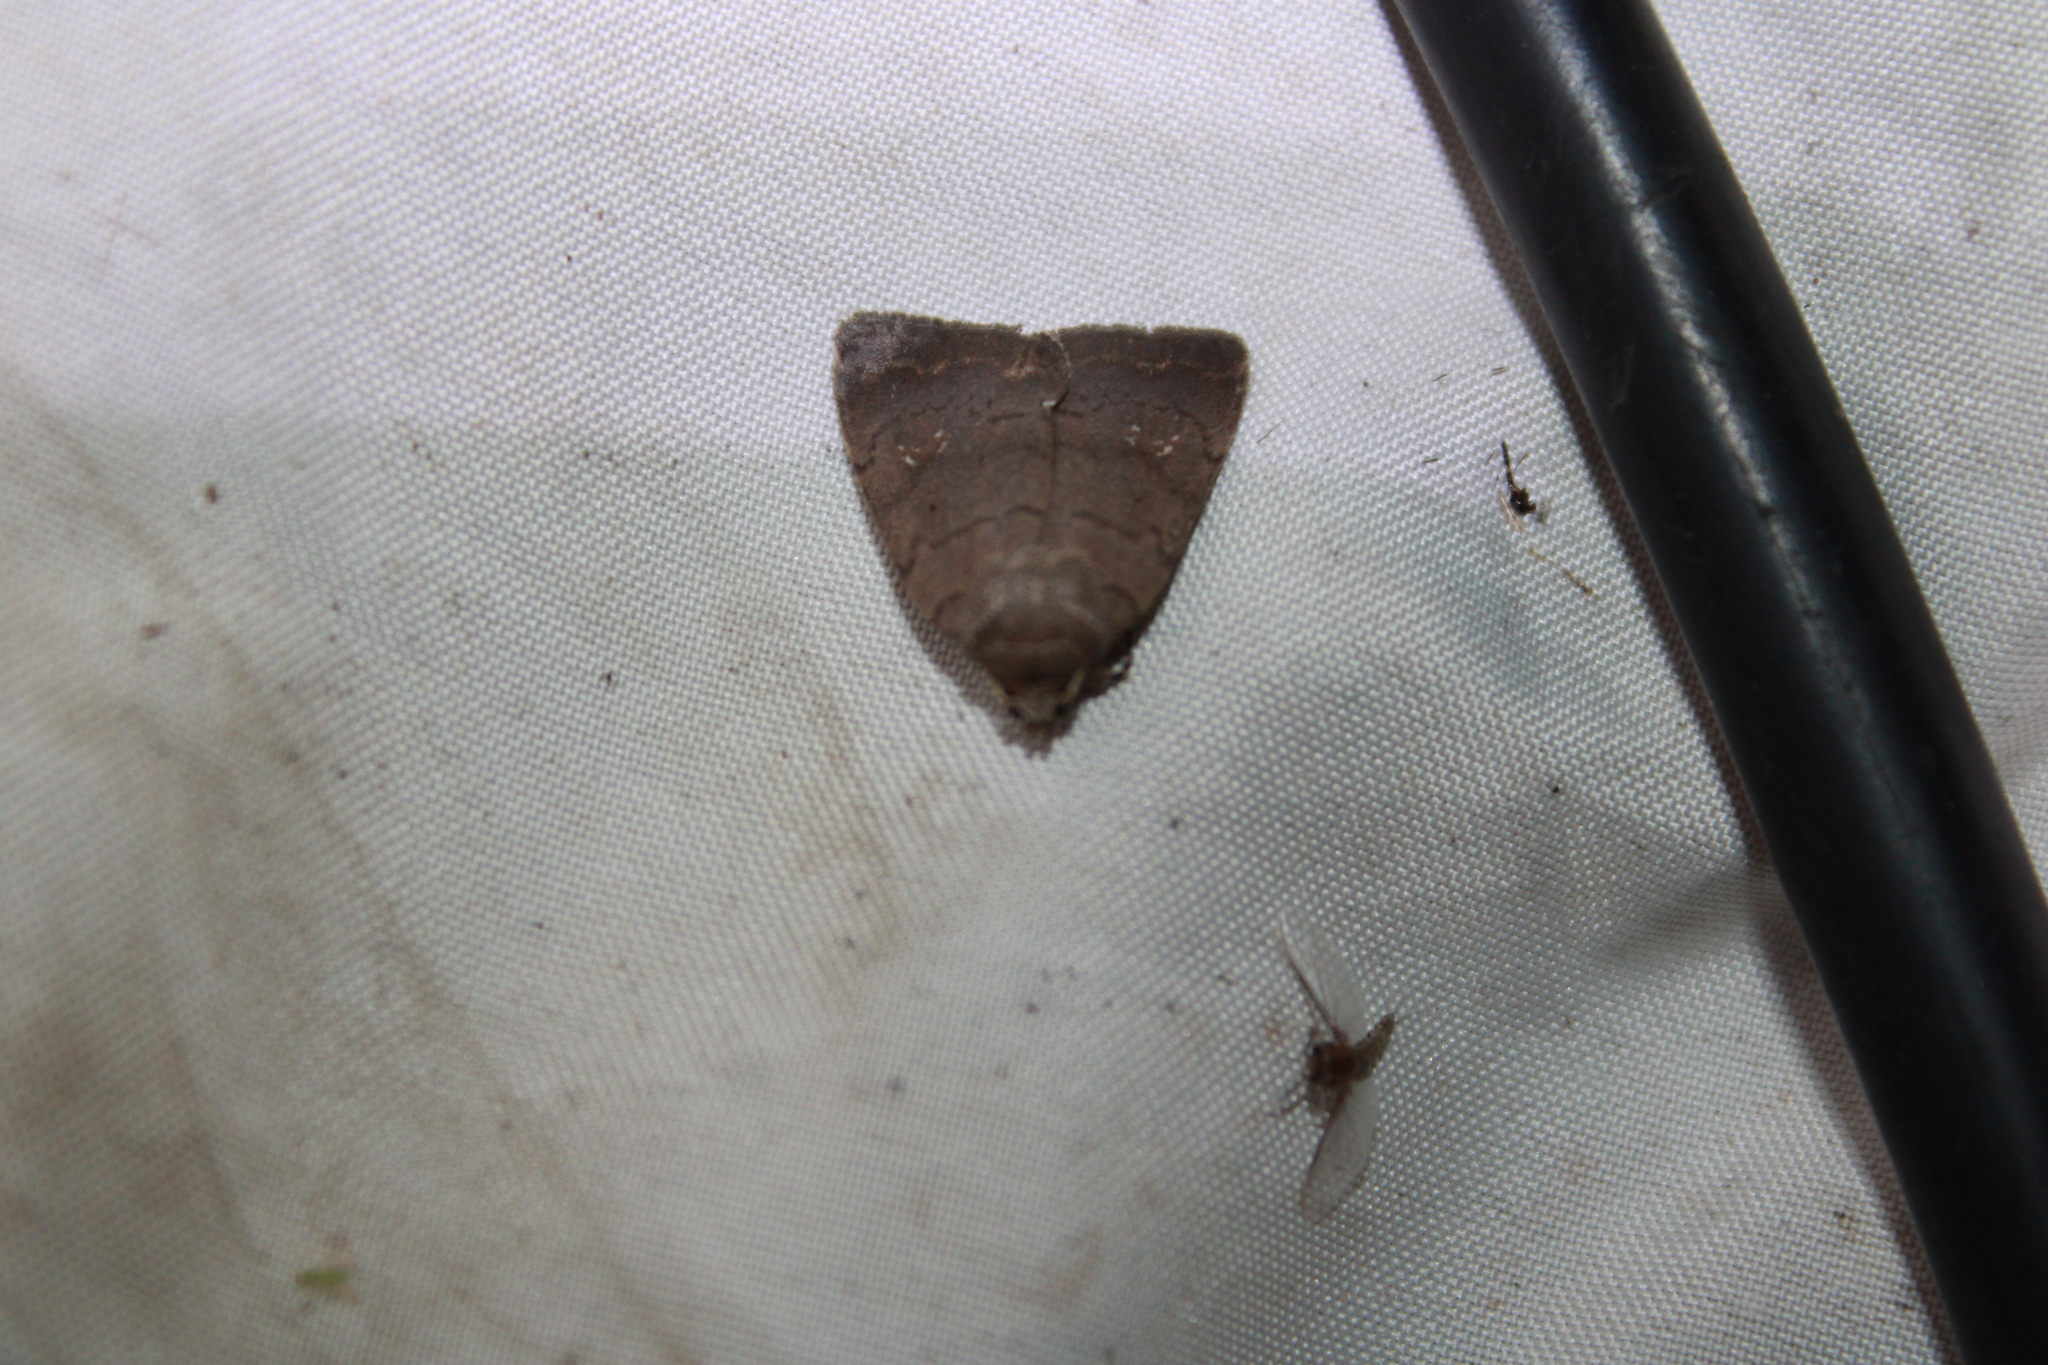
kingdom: Animalia
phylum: Arthropoda
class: Insecta
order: Lepidoptera
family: Noctuidae
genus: Athetis
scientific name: Athetis tarda
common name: Slowpoke moth
